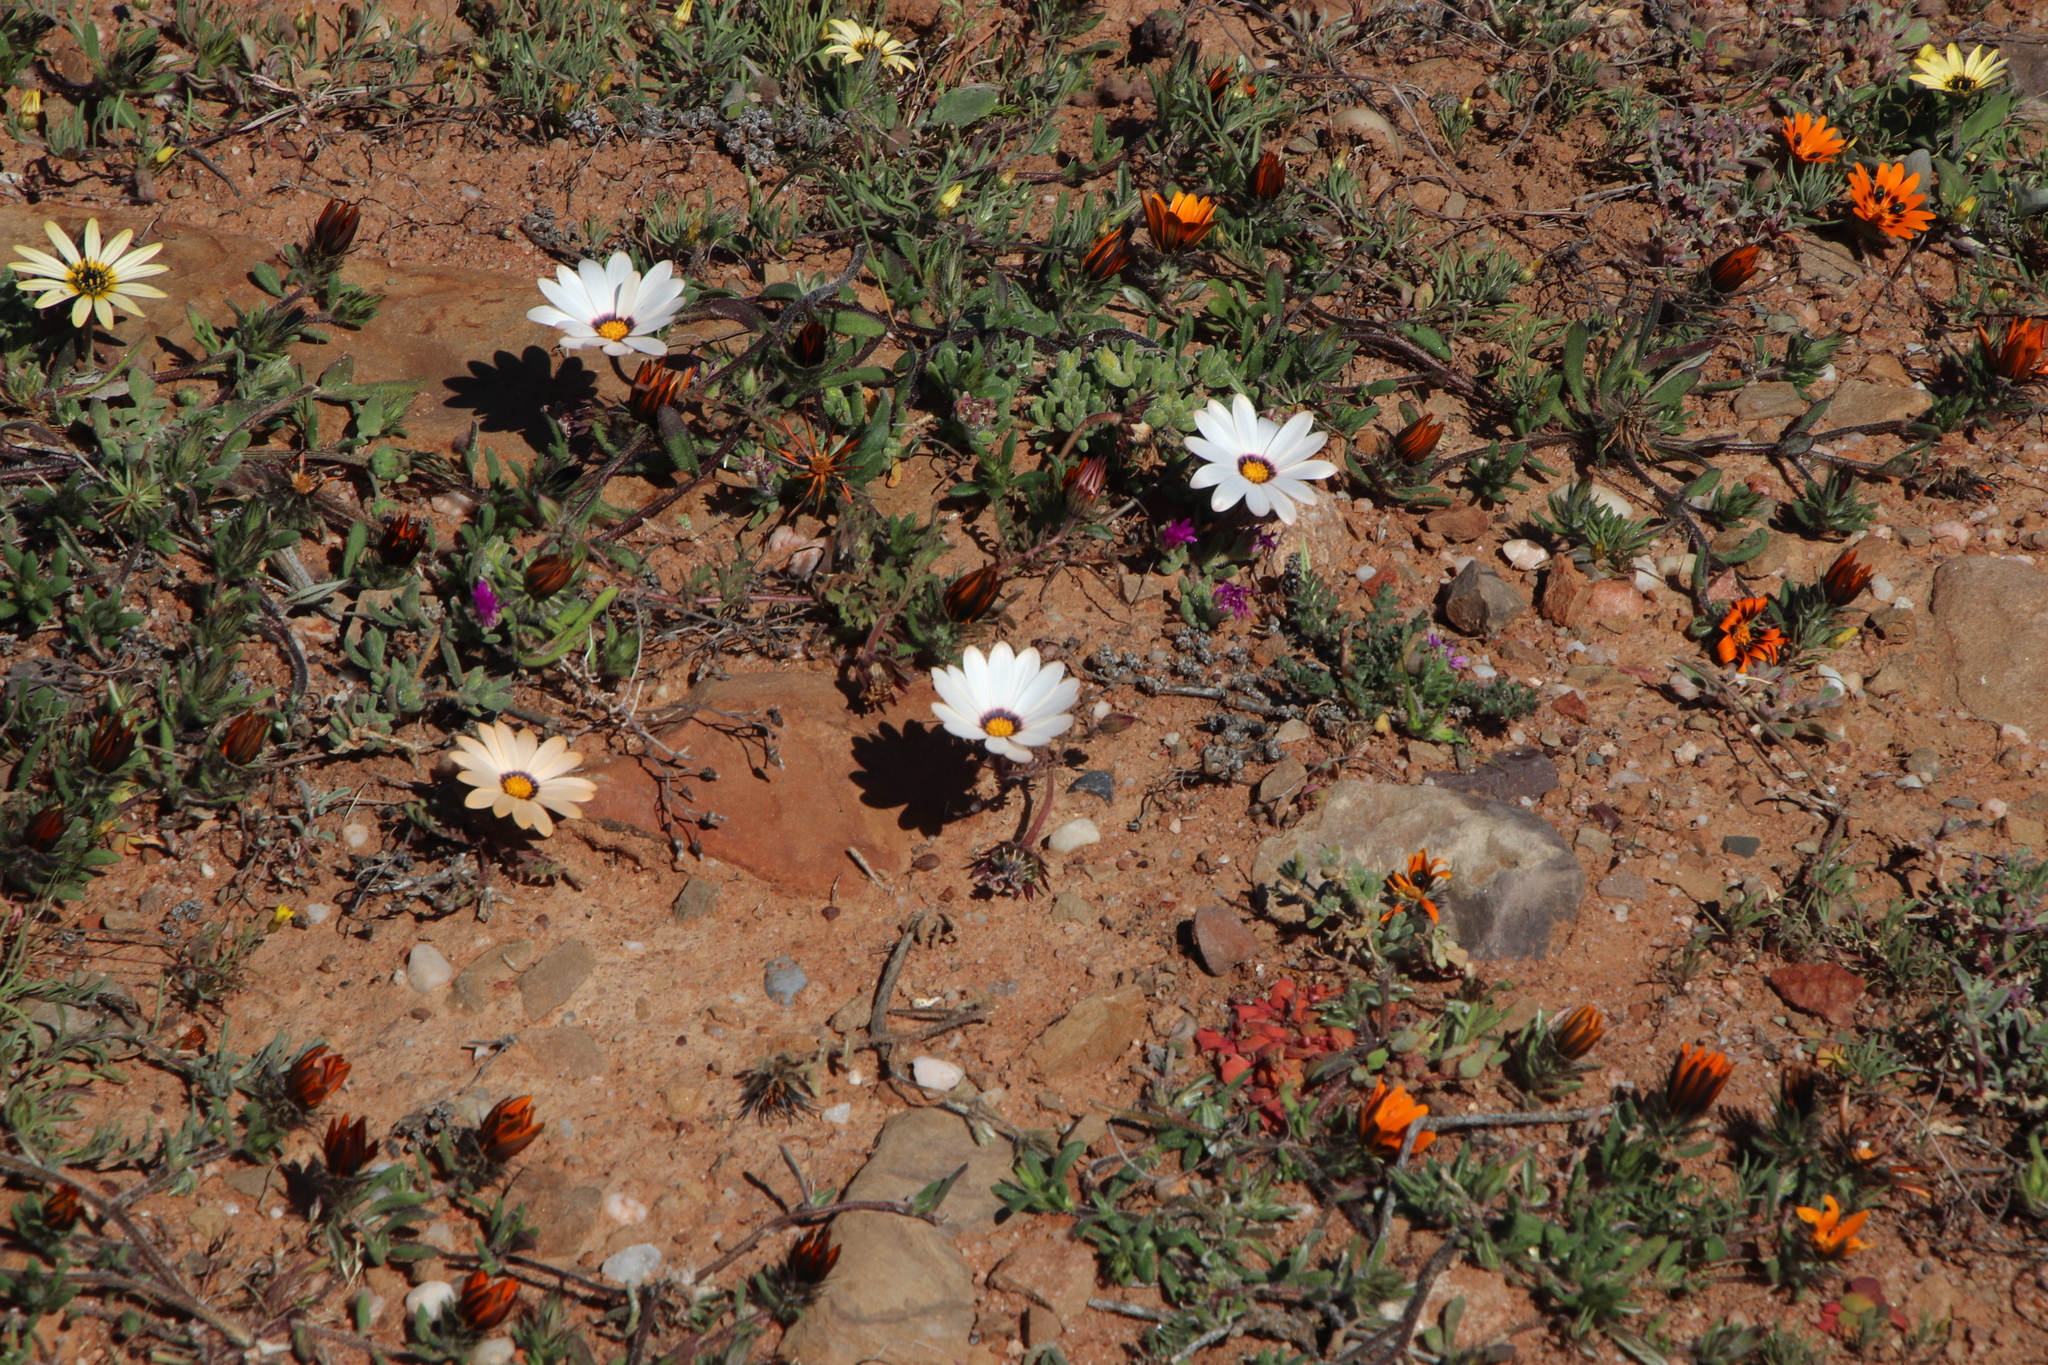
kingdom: Plantae
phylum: Tracheophyta
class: Magnoliopsida
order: Asterales
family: Asteraceae
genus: Dimorphotheca
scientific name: Dimorphotheca pinnata
